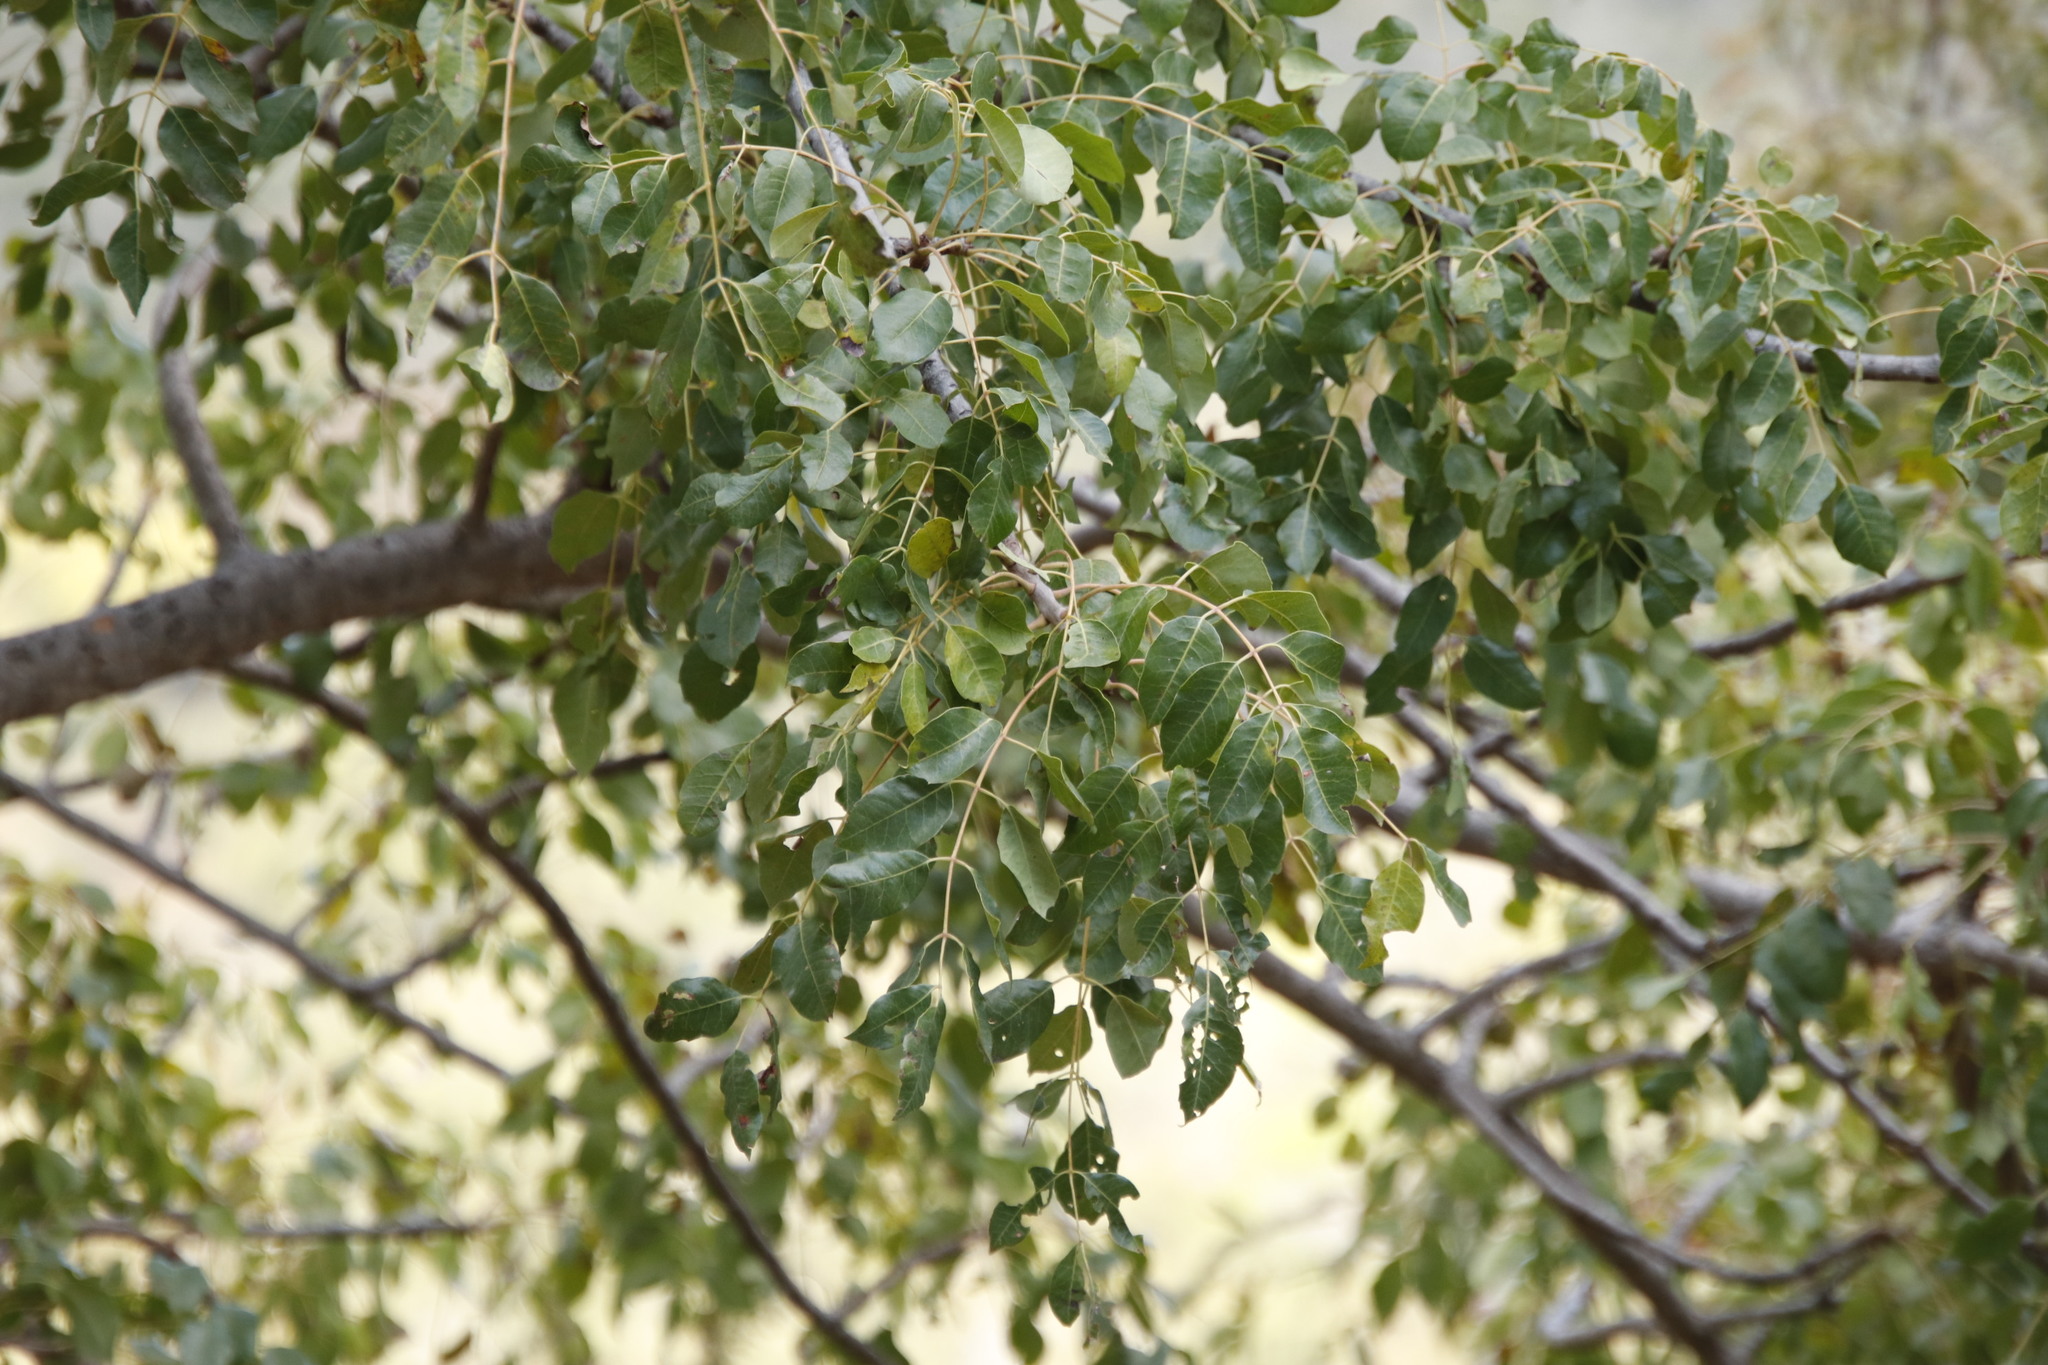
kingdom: Plantae
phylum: Tracheophyta
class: Magnoliopsida
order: Sapindales
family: Anacardiaceae
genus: Sclerocarya
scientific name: Sclerocarya birrea
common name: Marula
